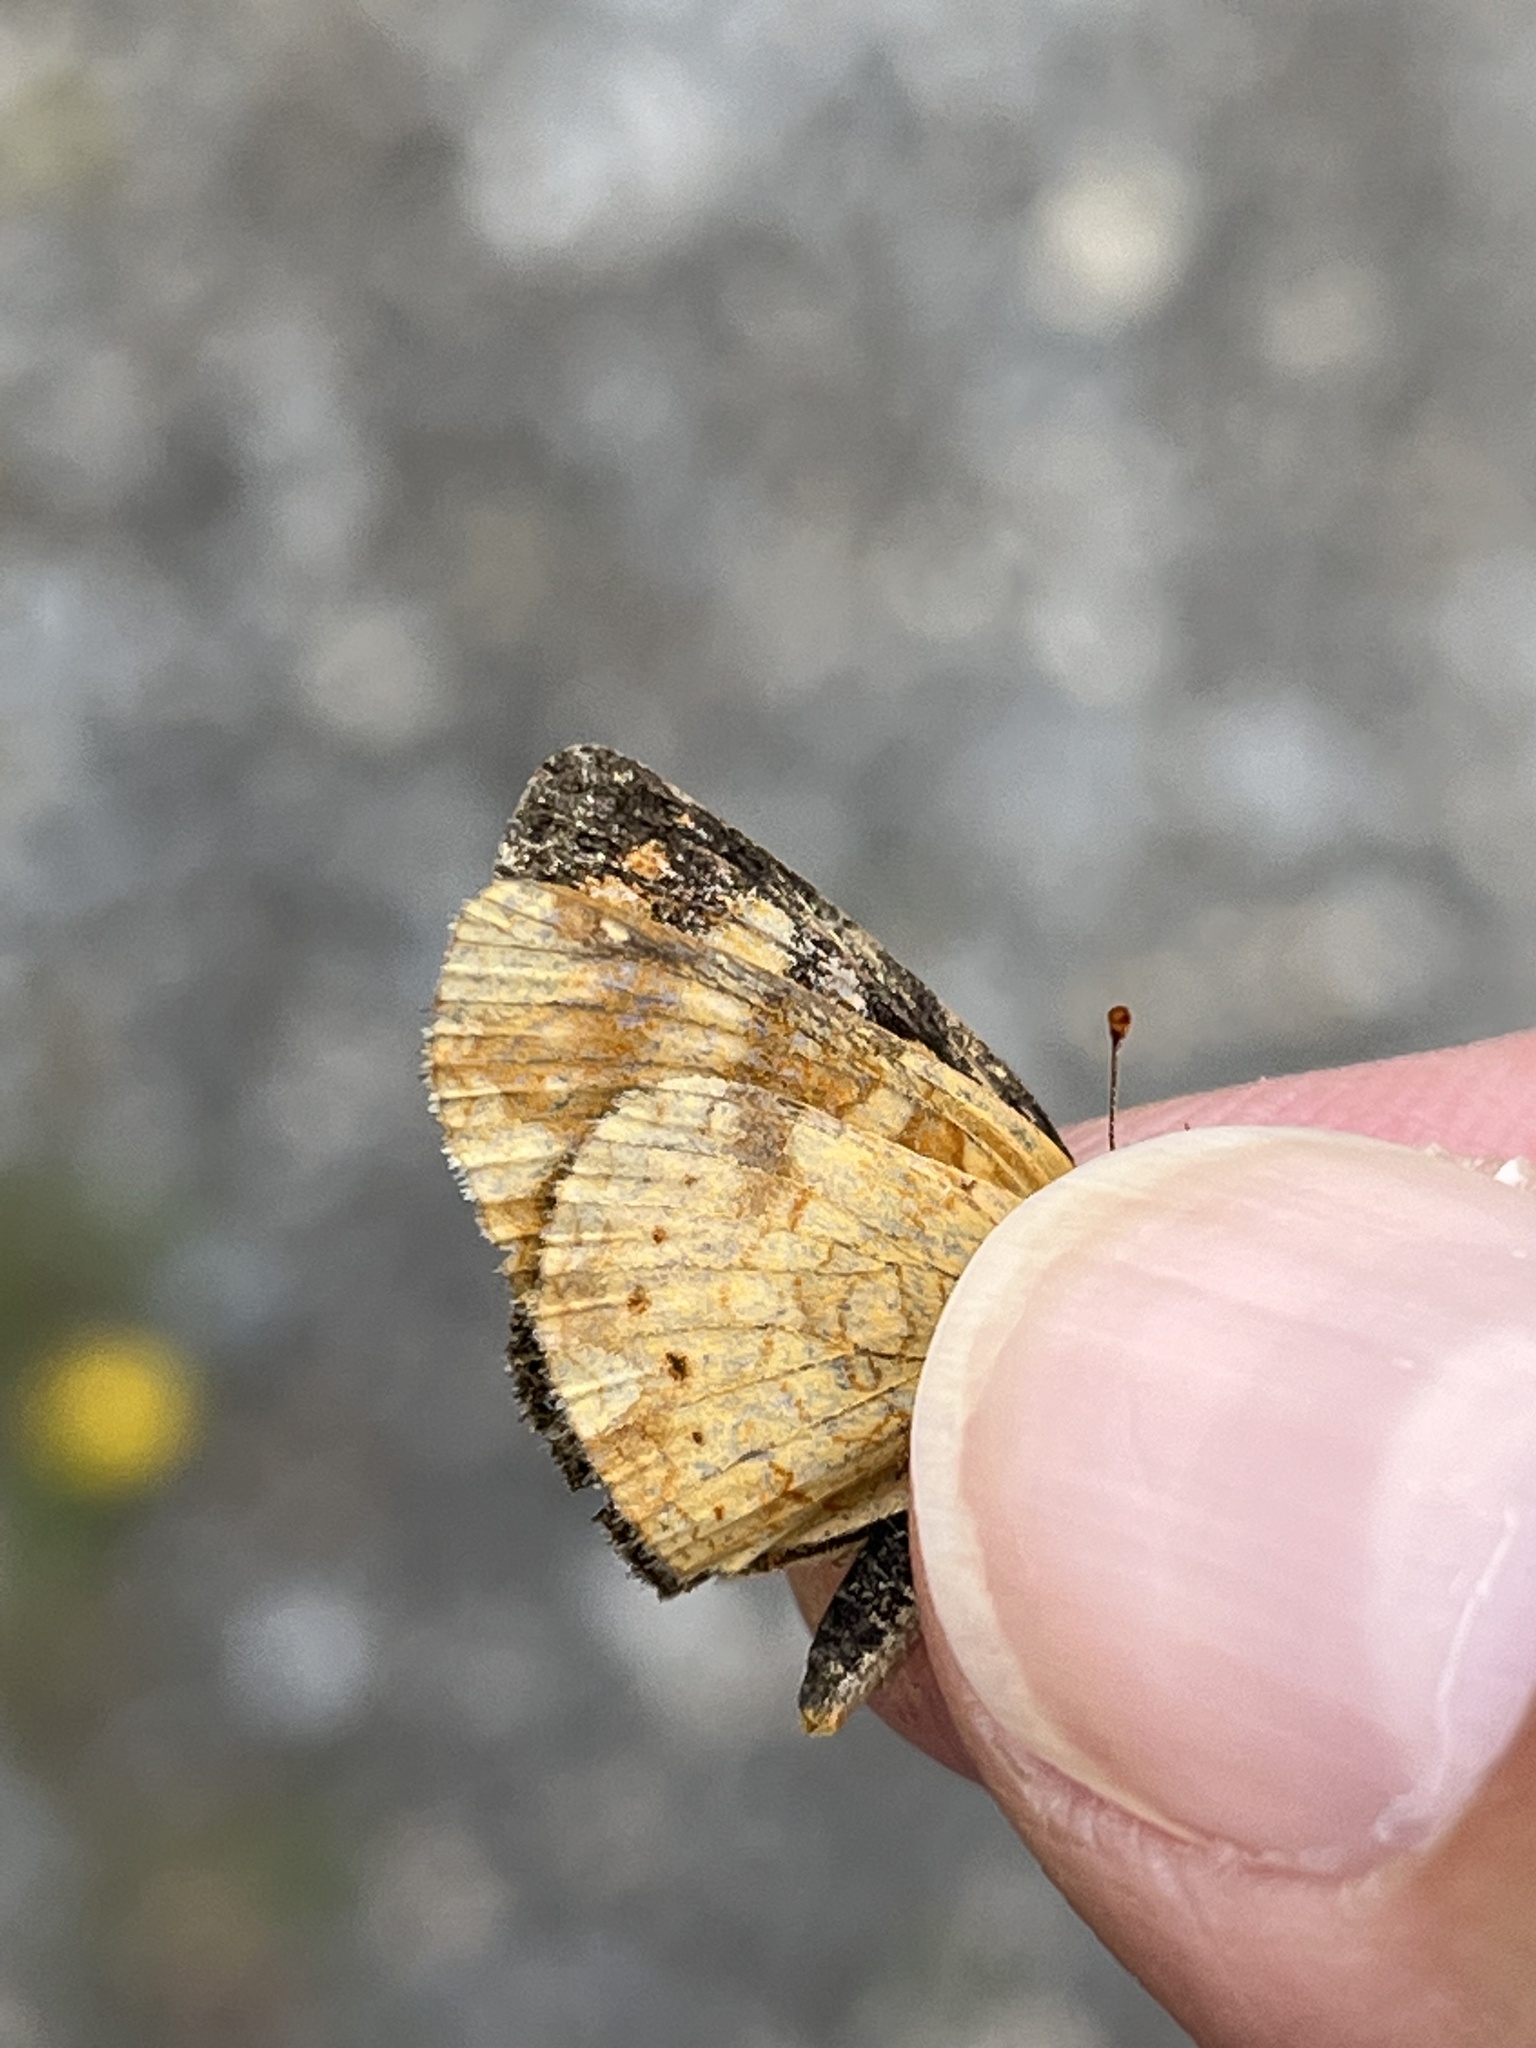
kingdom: Animalia
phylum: Arthropoda
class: Insecta
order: Lepidoptera
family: Nymphalidae
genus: Phyciodes
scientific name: Phyciodes tharos
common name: Pearl crescent
